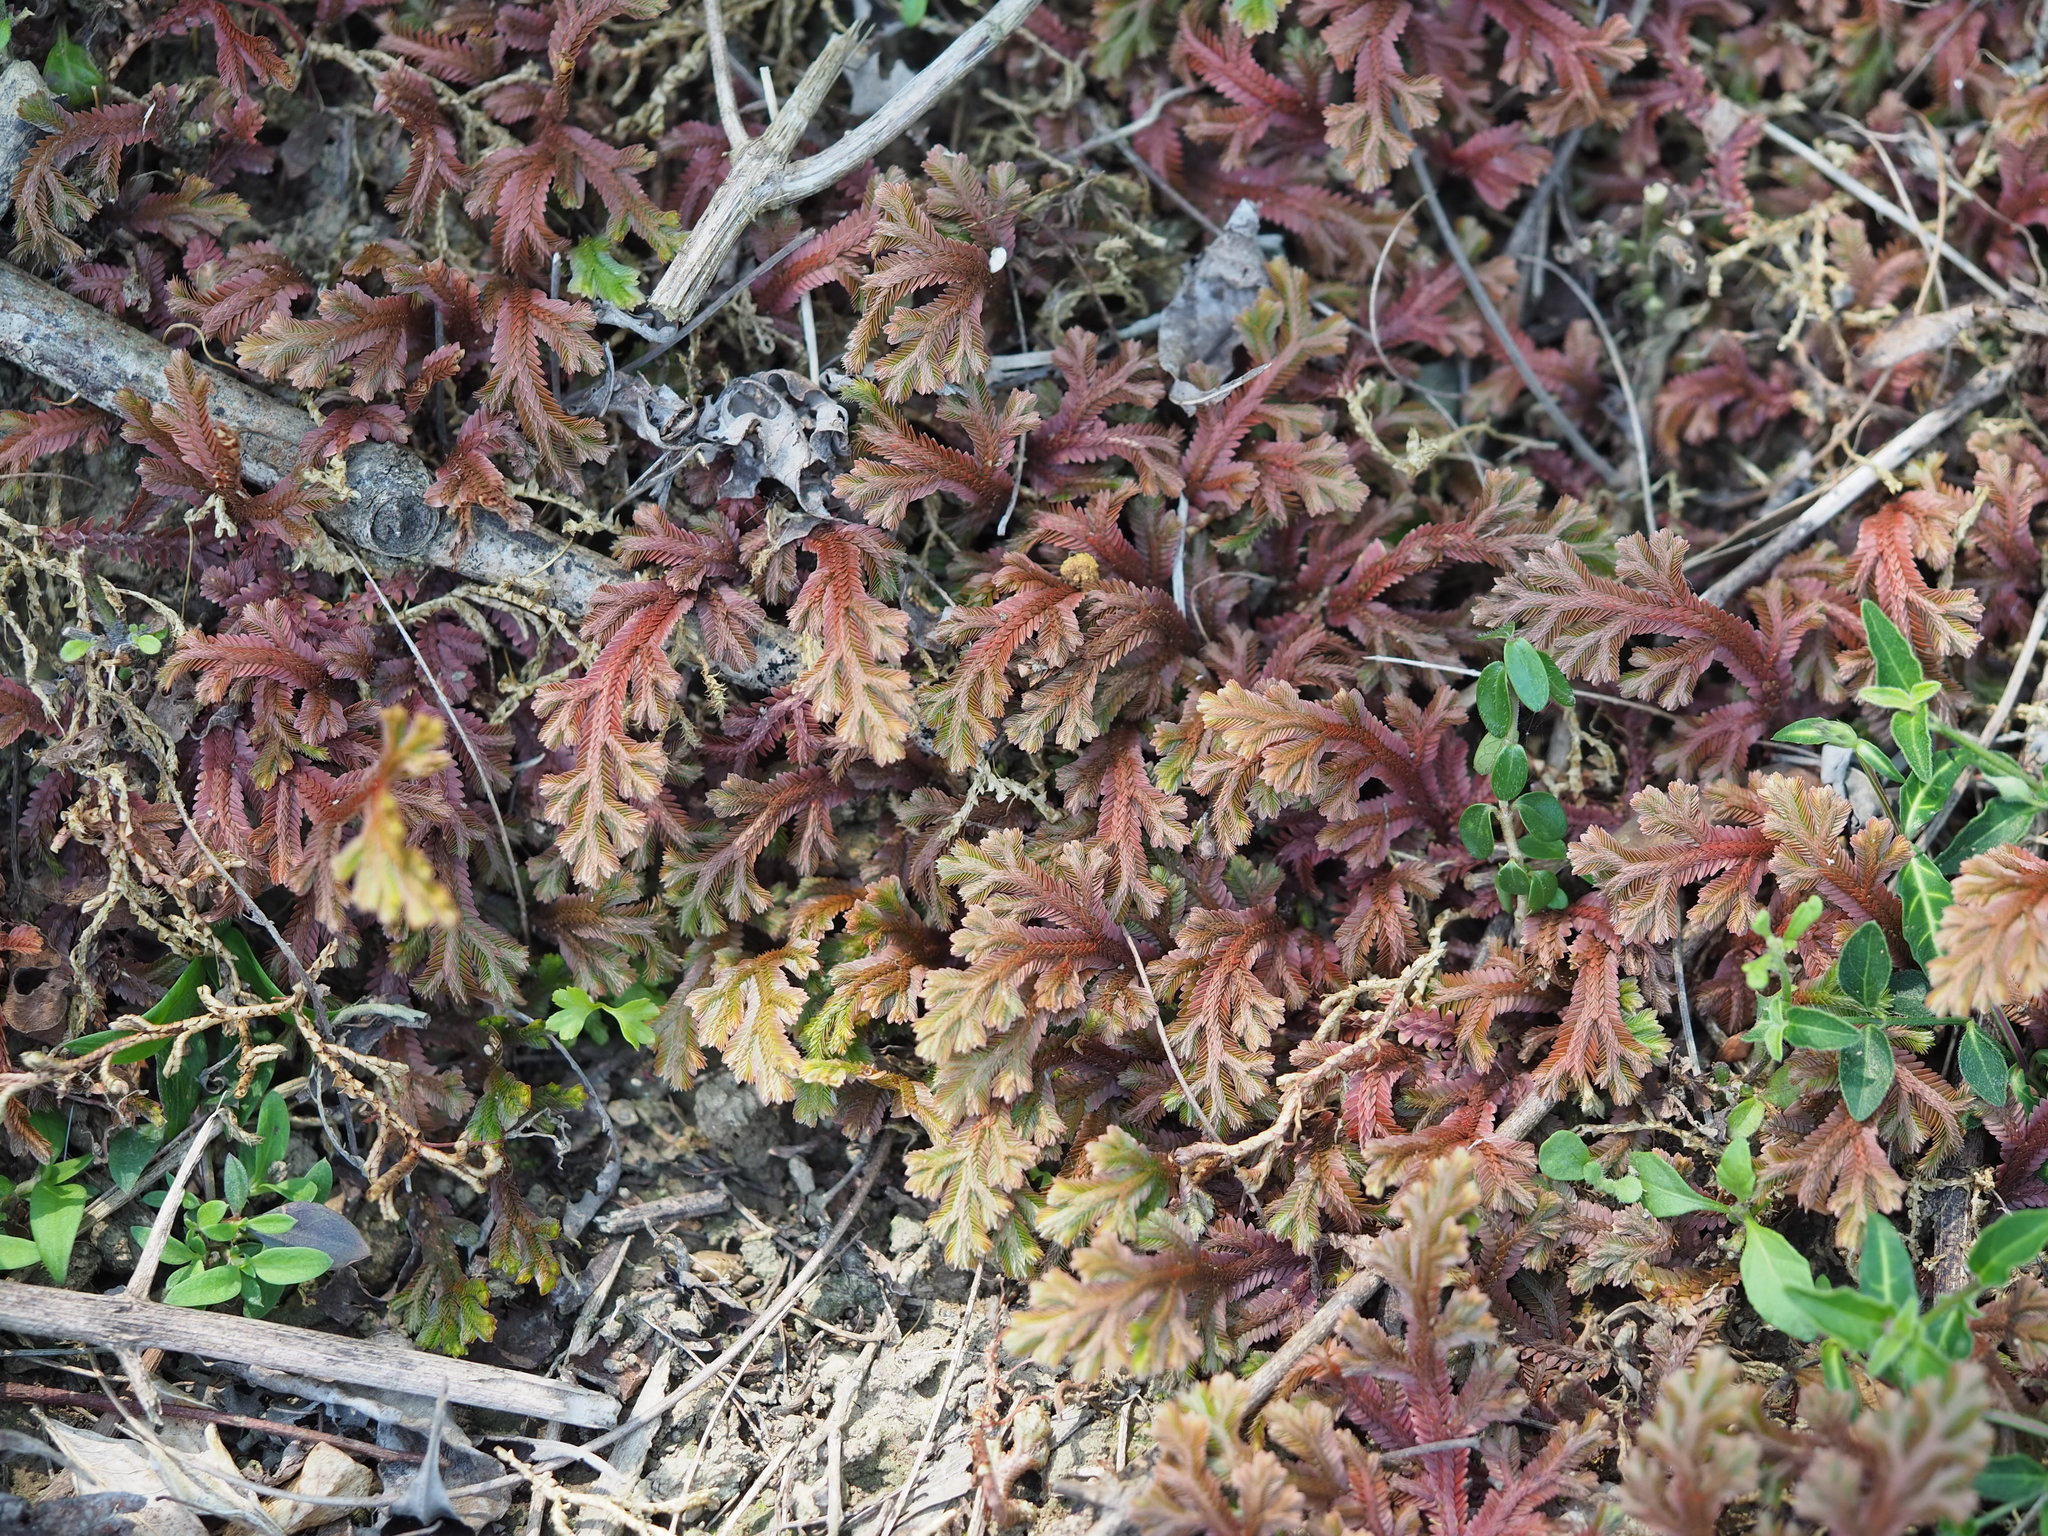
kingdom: Plantae
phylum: Tracheophyta
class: Lycopodiopsida
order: Selaginellales
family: Selaginellaceae
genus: Selaginella
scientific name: Selaginella repanda
